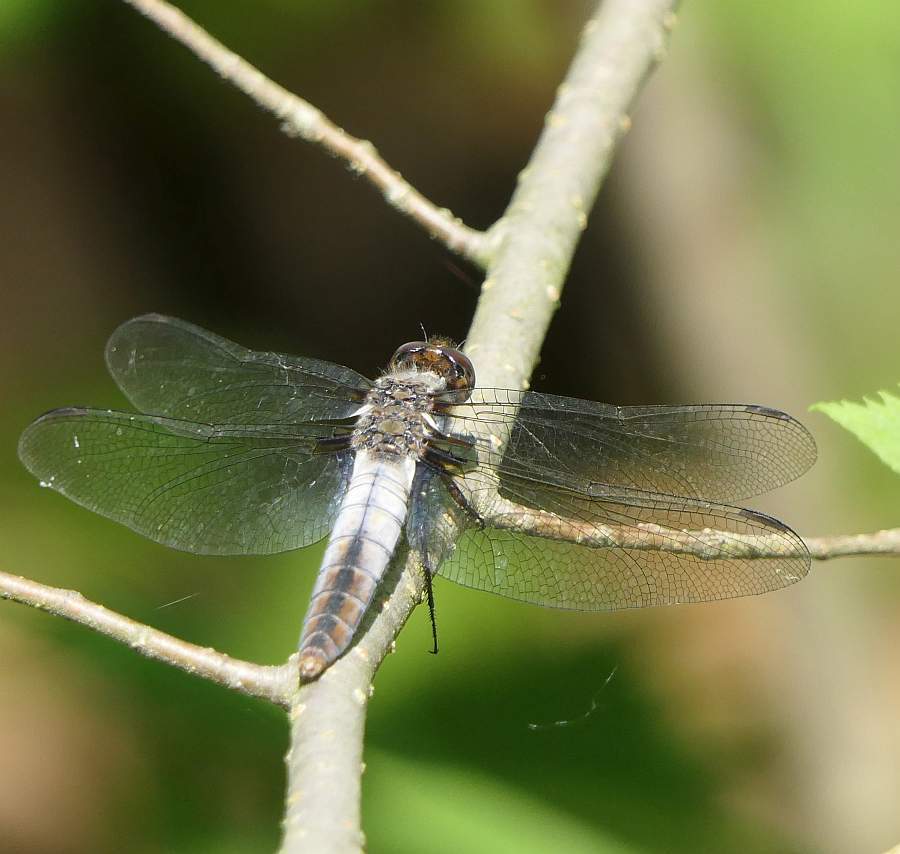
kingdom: Animalia
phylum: Arthropoda
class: Insecta
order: Odonata
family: Libellulidae
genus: Ladona
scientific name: Ladona julia
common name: Chalk-fronted corporal
